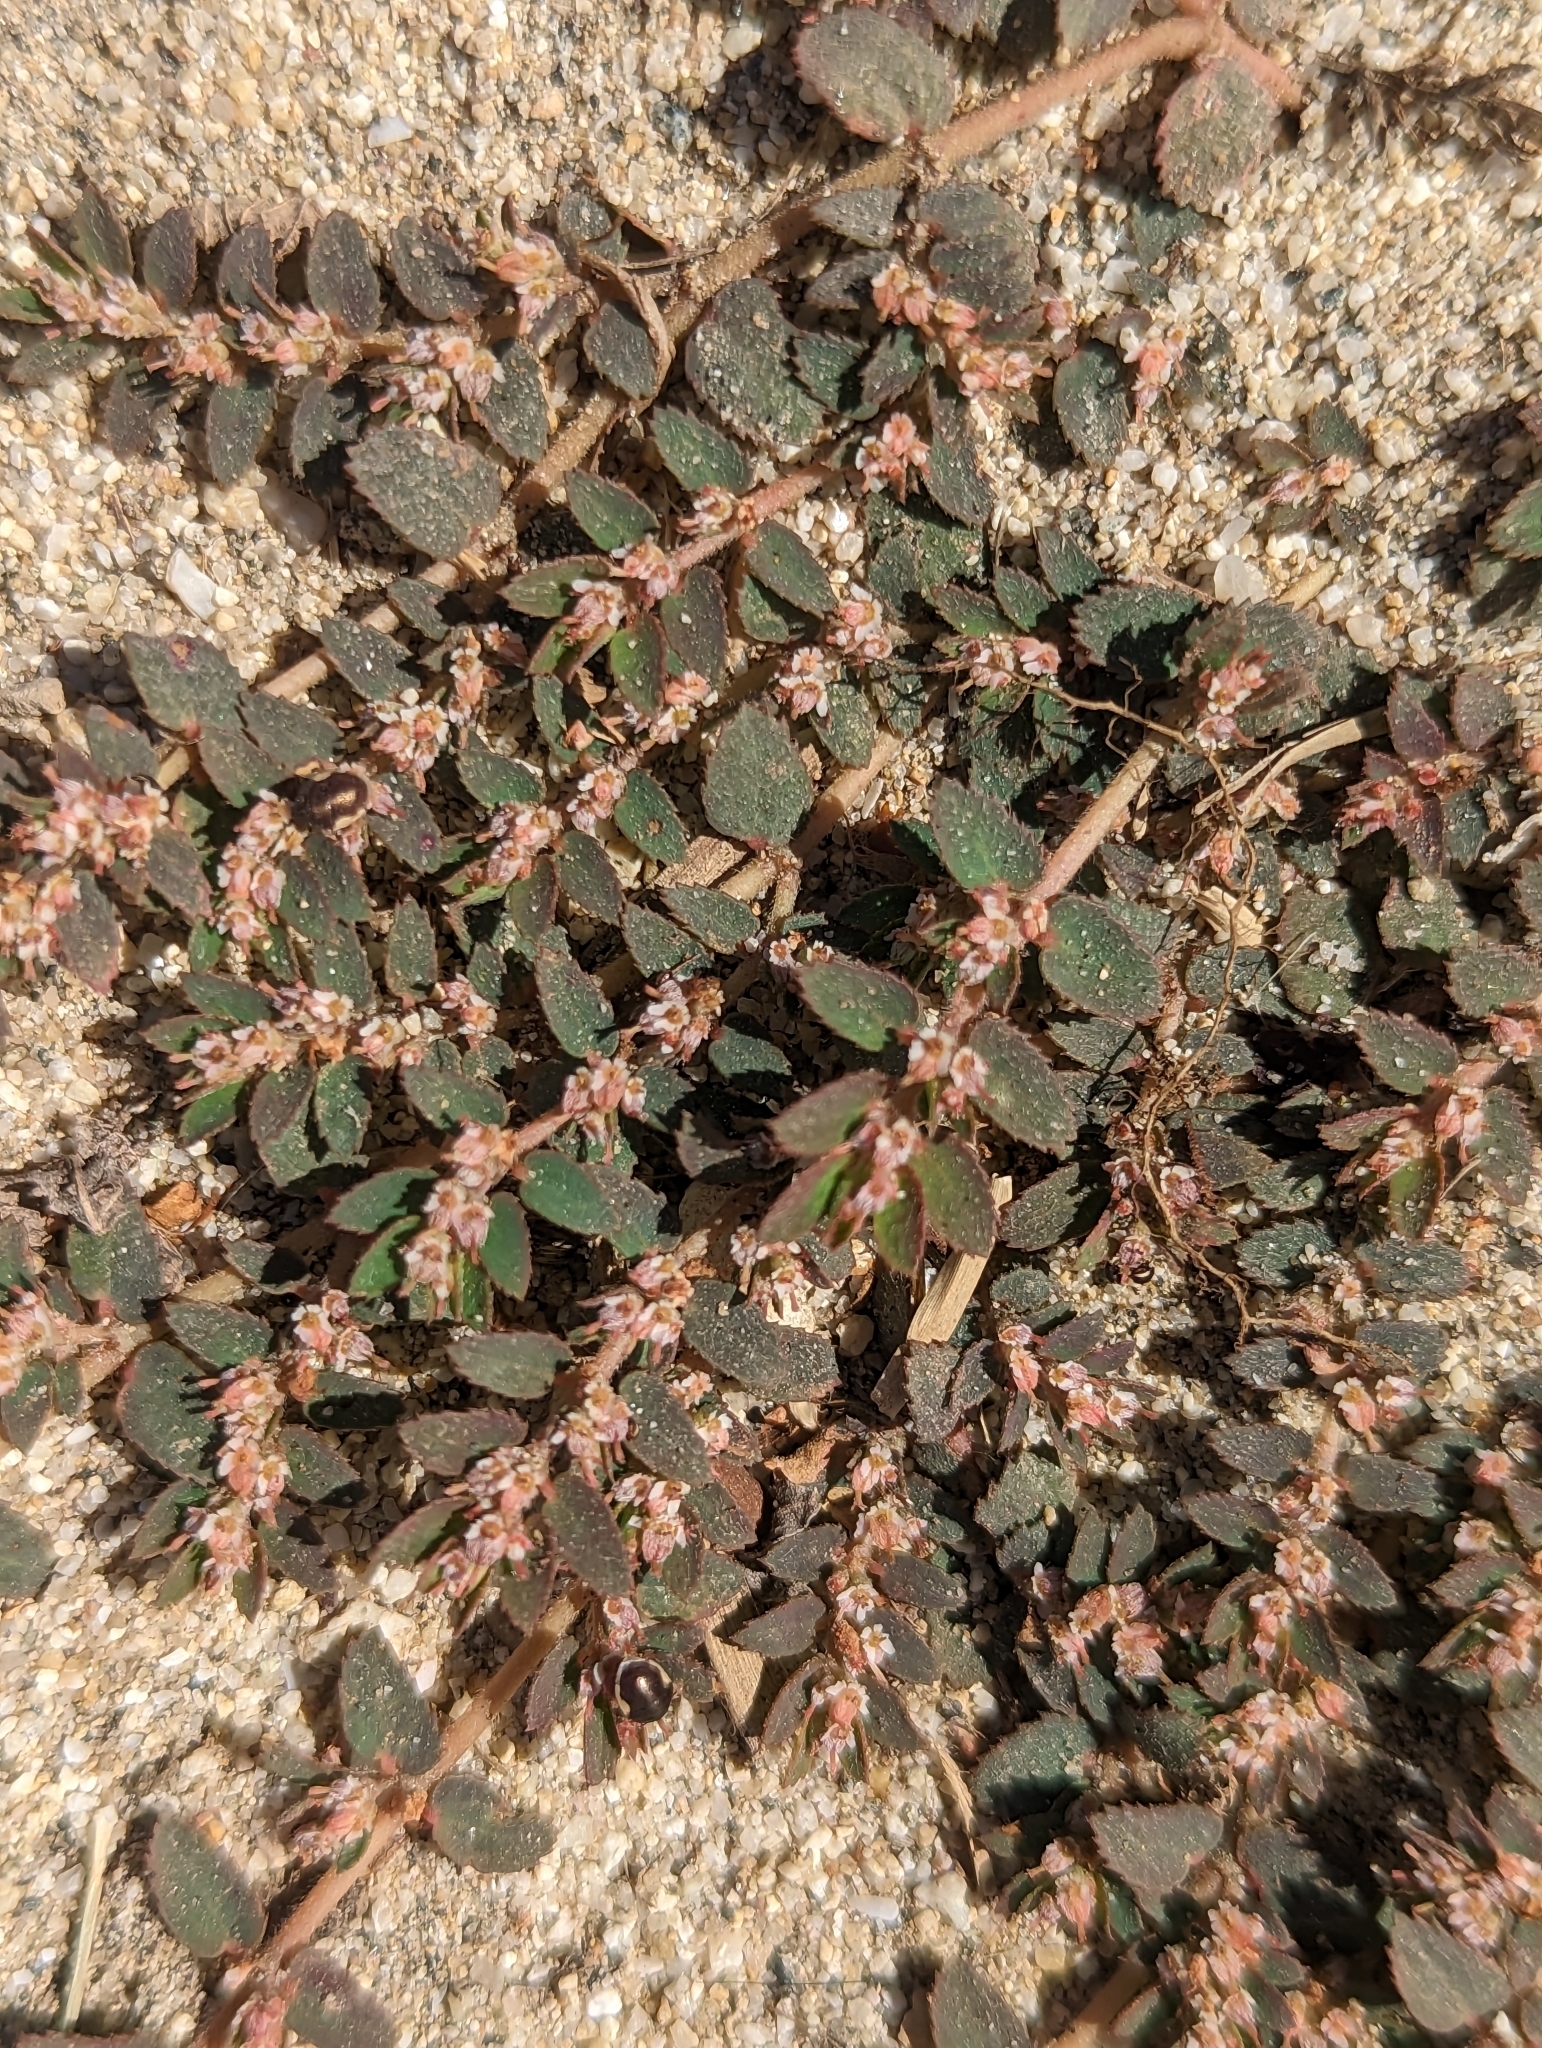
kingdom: Plantae
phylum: Tracheophyta
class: Magnoliopsida
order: Malpighiales
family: Euphorbiaceae
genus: Euphorbia
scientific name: Euphorbia dioeca
